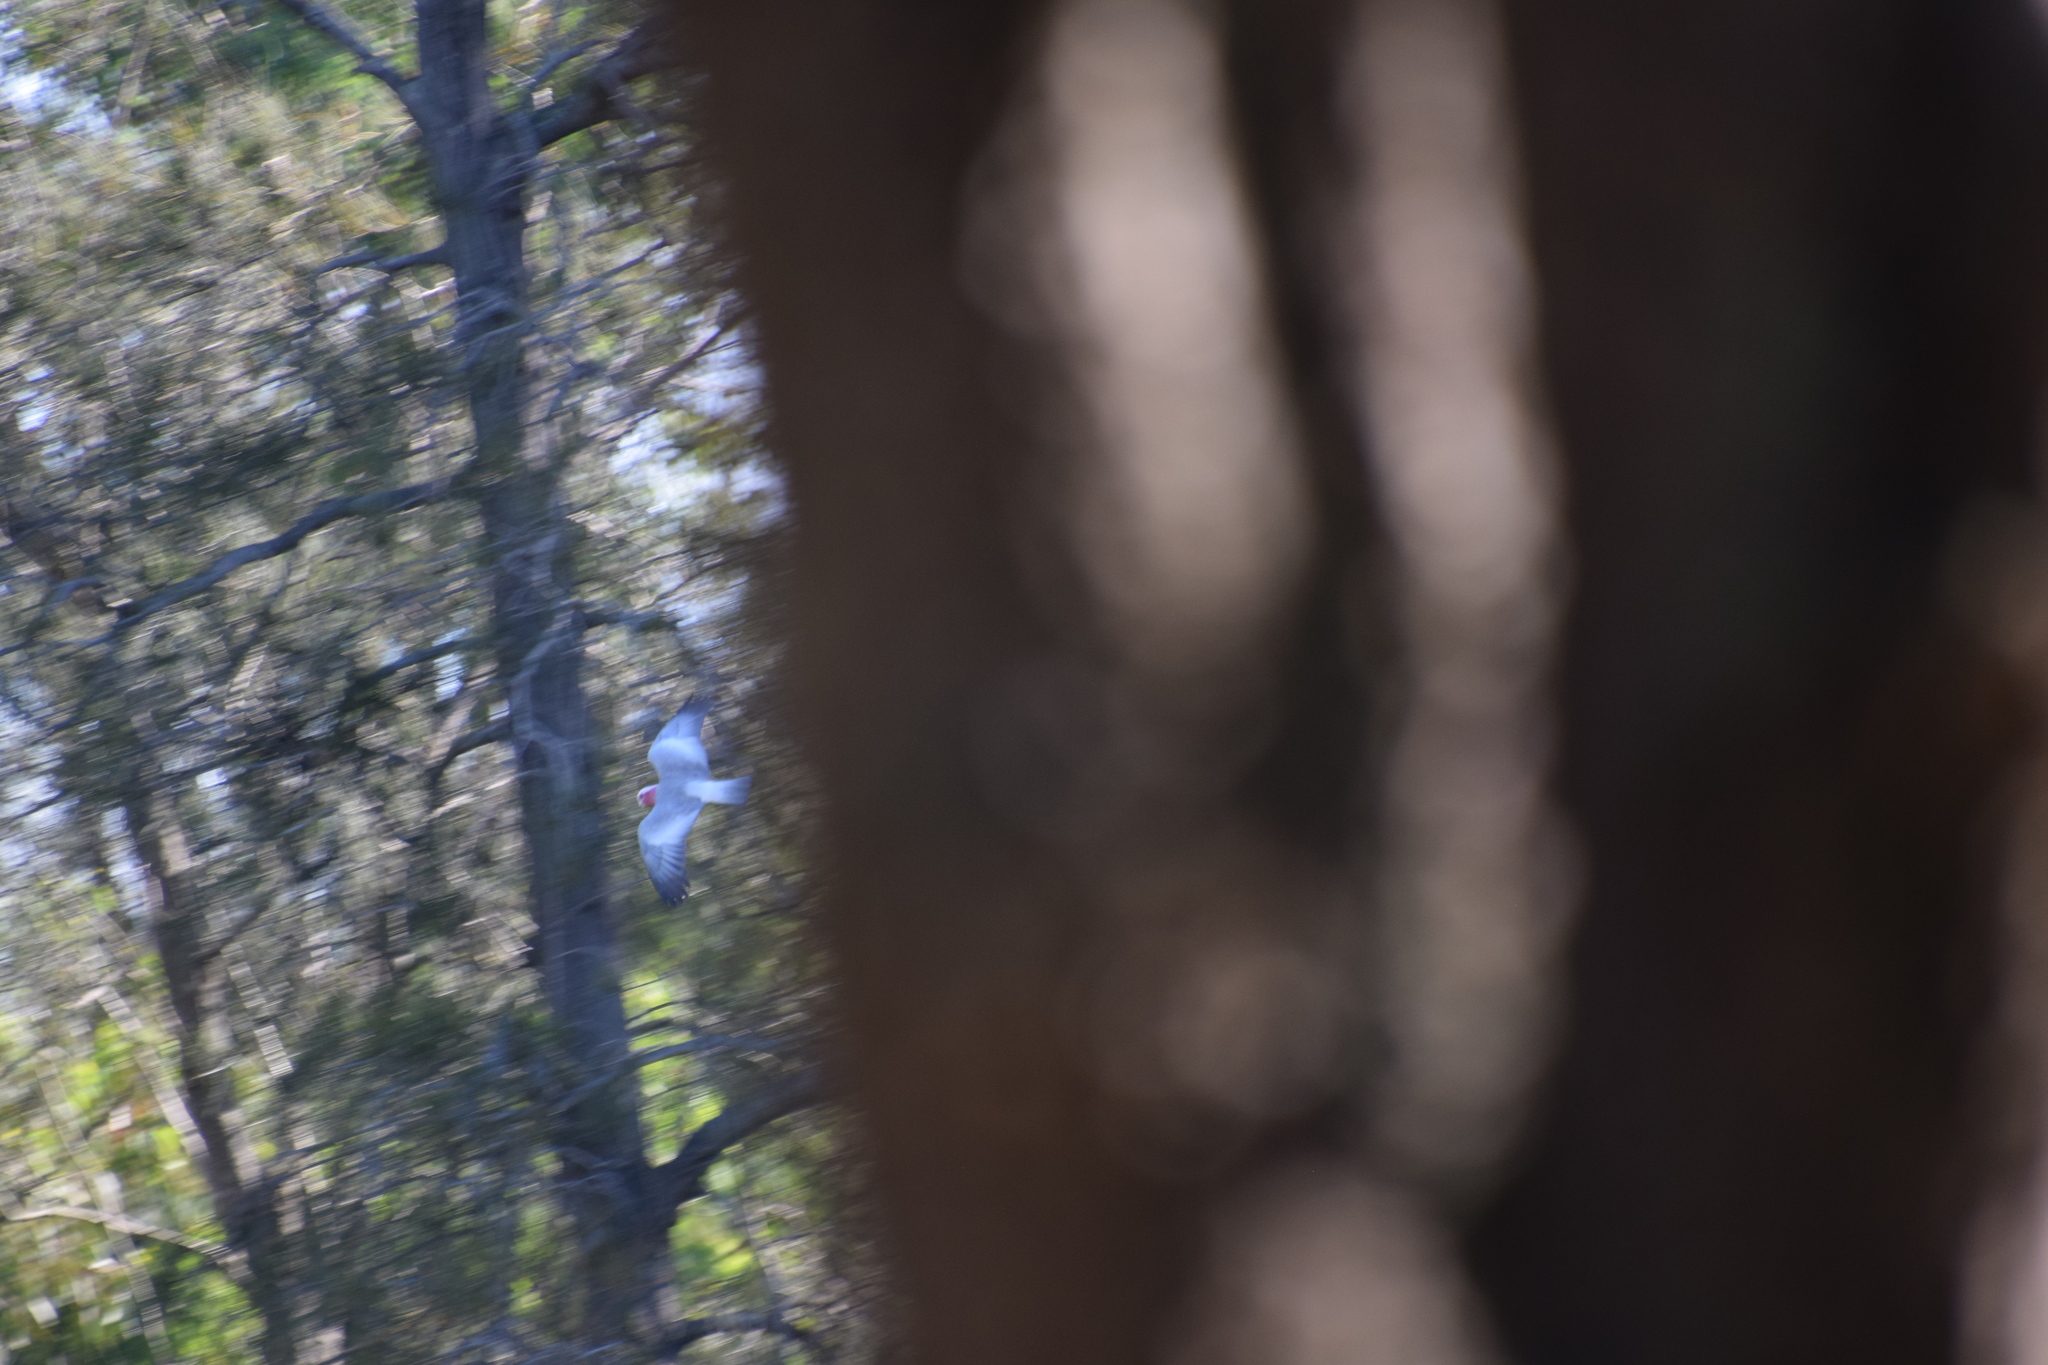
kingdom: Animalia
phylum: Chordata
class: Aves
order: Psittaciformes
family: Psittacidae
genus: Eolophus
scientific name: Eolophus roseicapilla
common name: Galah
